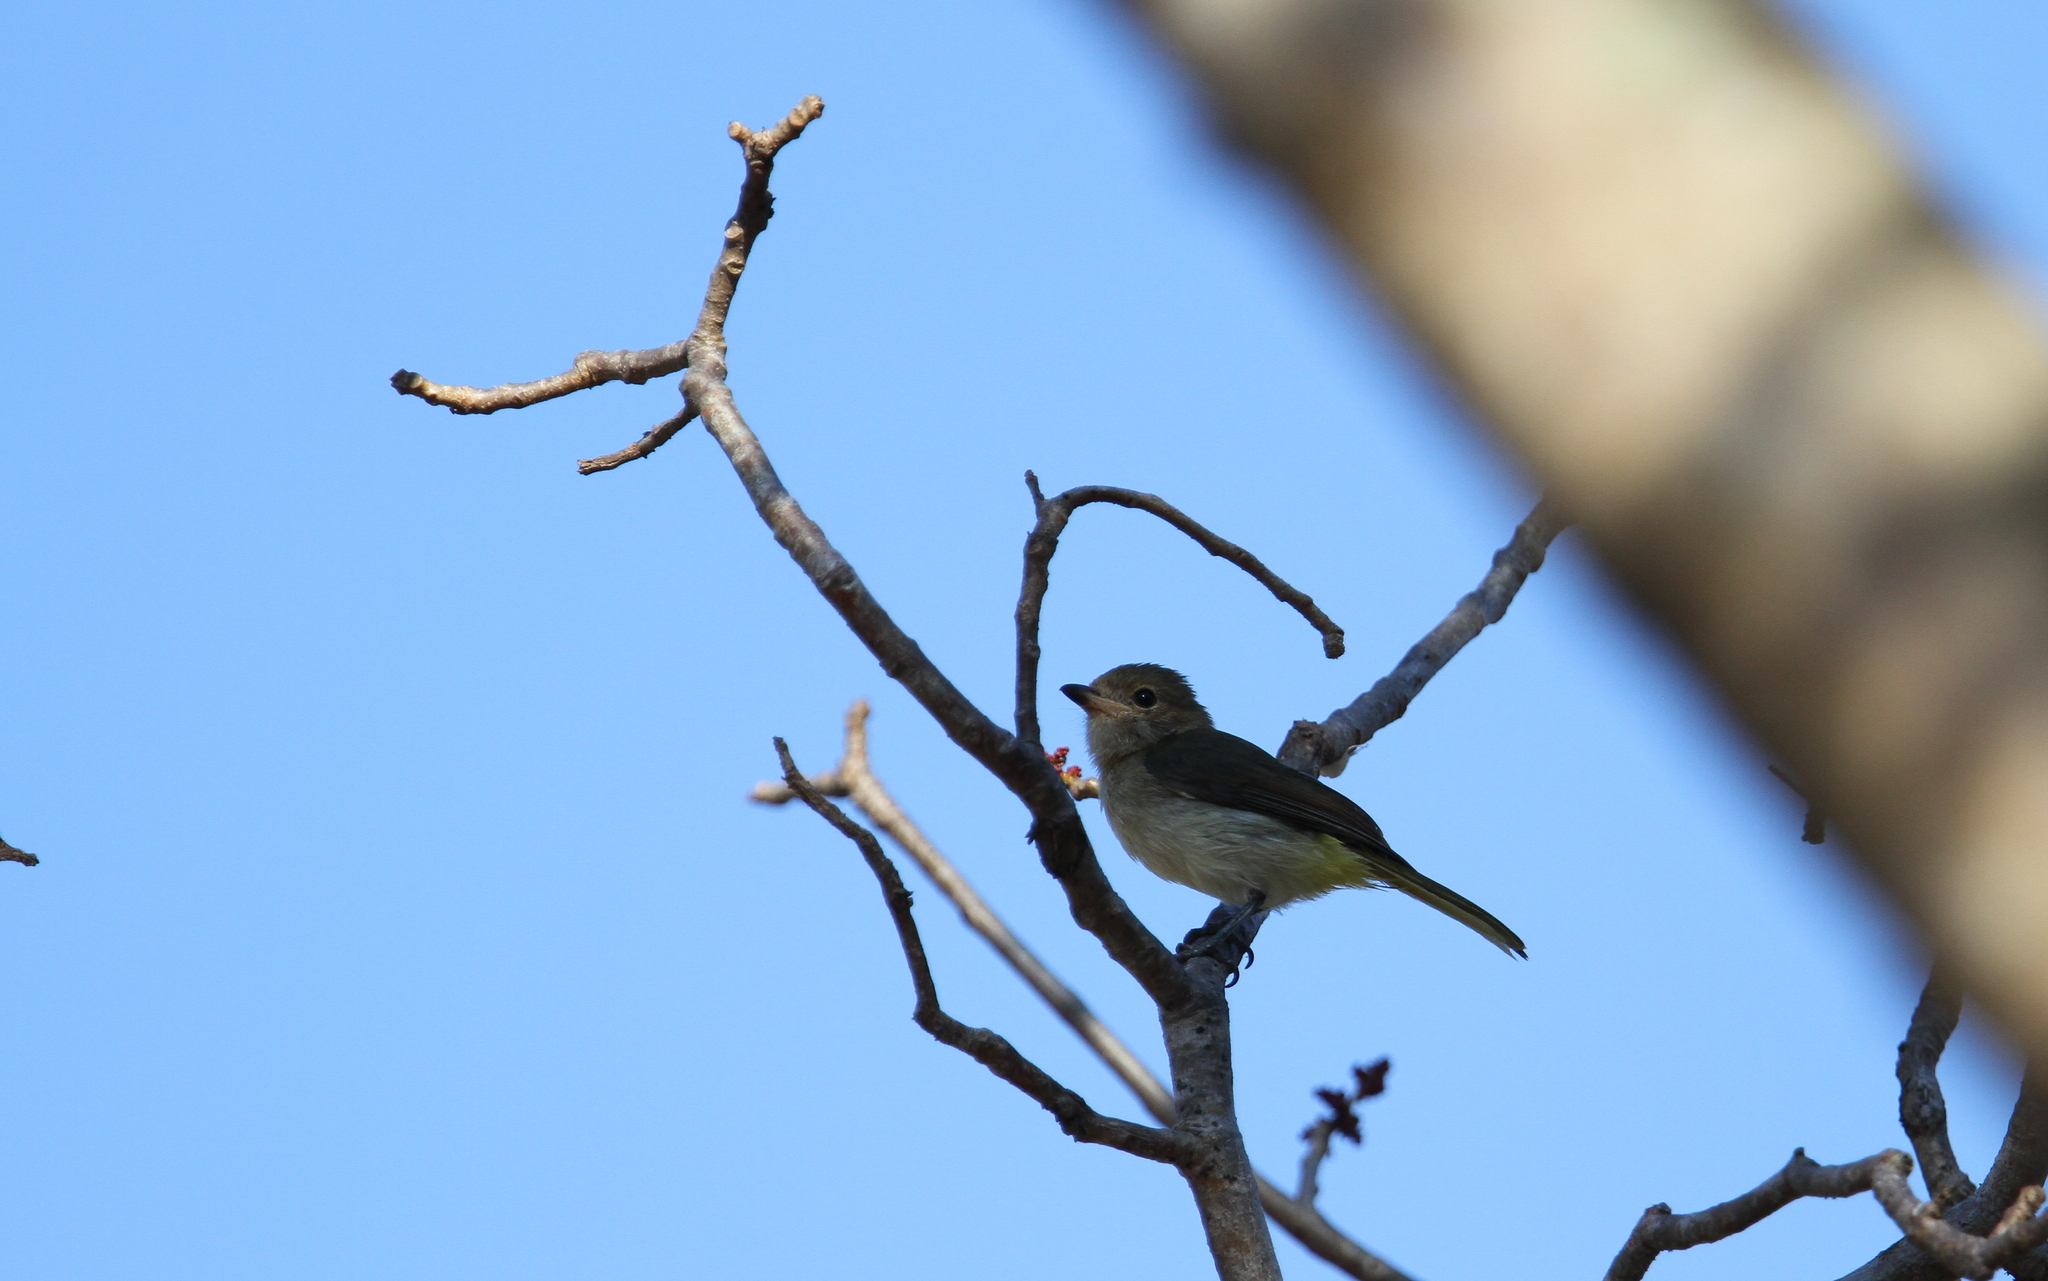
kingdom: Animalia
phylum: Chordata
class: Aves
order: Passeriformes
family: Pachycephalidae
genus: Pachycephala
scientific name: Pachycephala fulvotincta
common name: Rusty-breasted whistler
